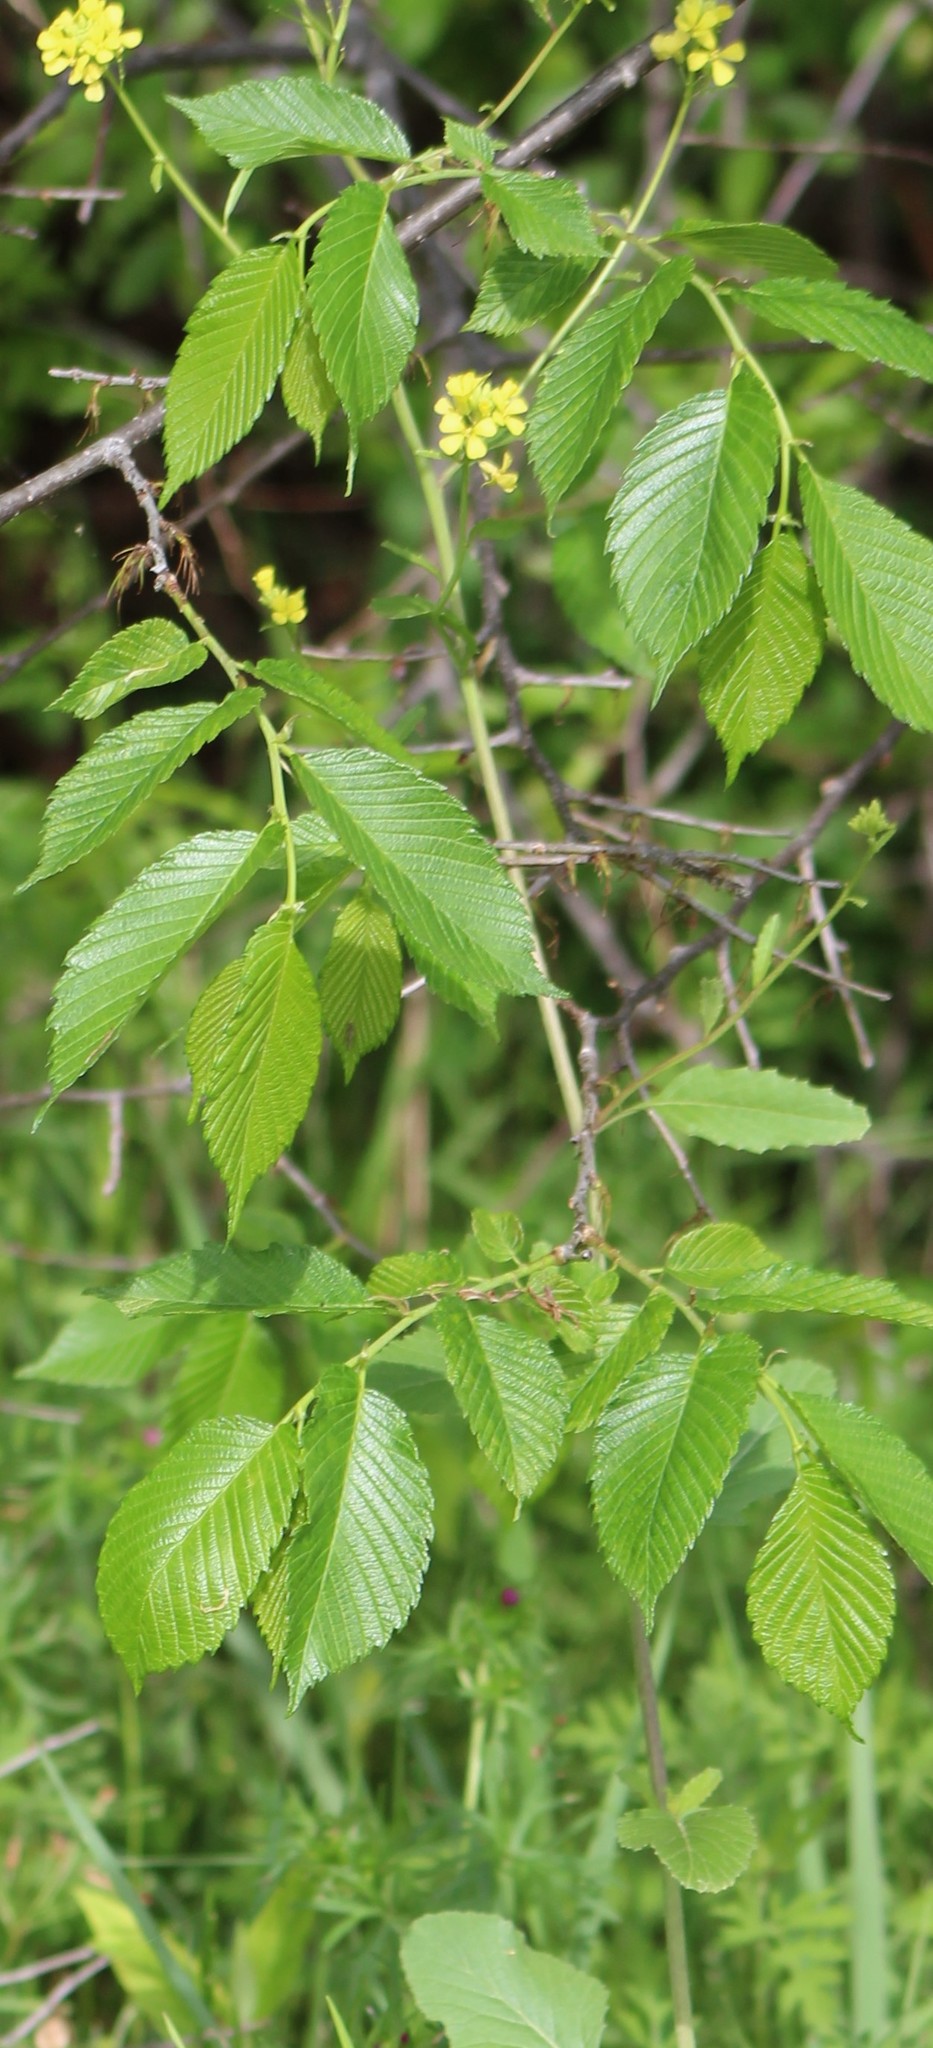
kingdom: Plantae
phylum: Tracheophyta
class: Magnoliopsida
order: Brassicales
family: Brassicaceae
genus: Rapistrum
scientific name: Rapistrum rugosum
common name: Annual bastardcabbage
